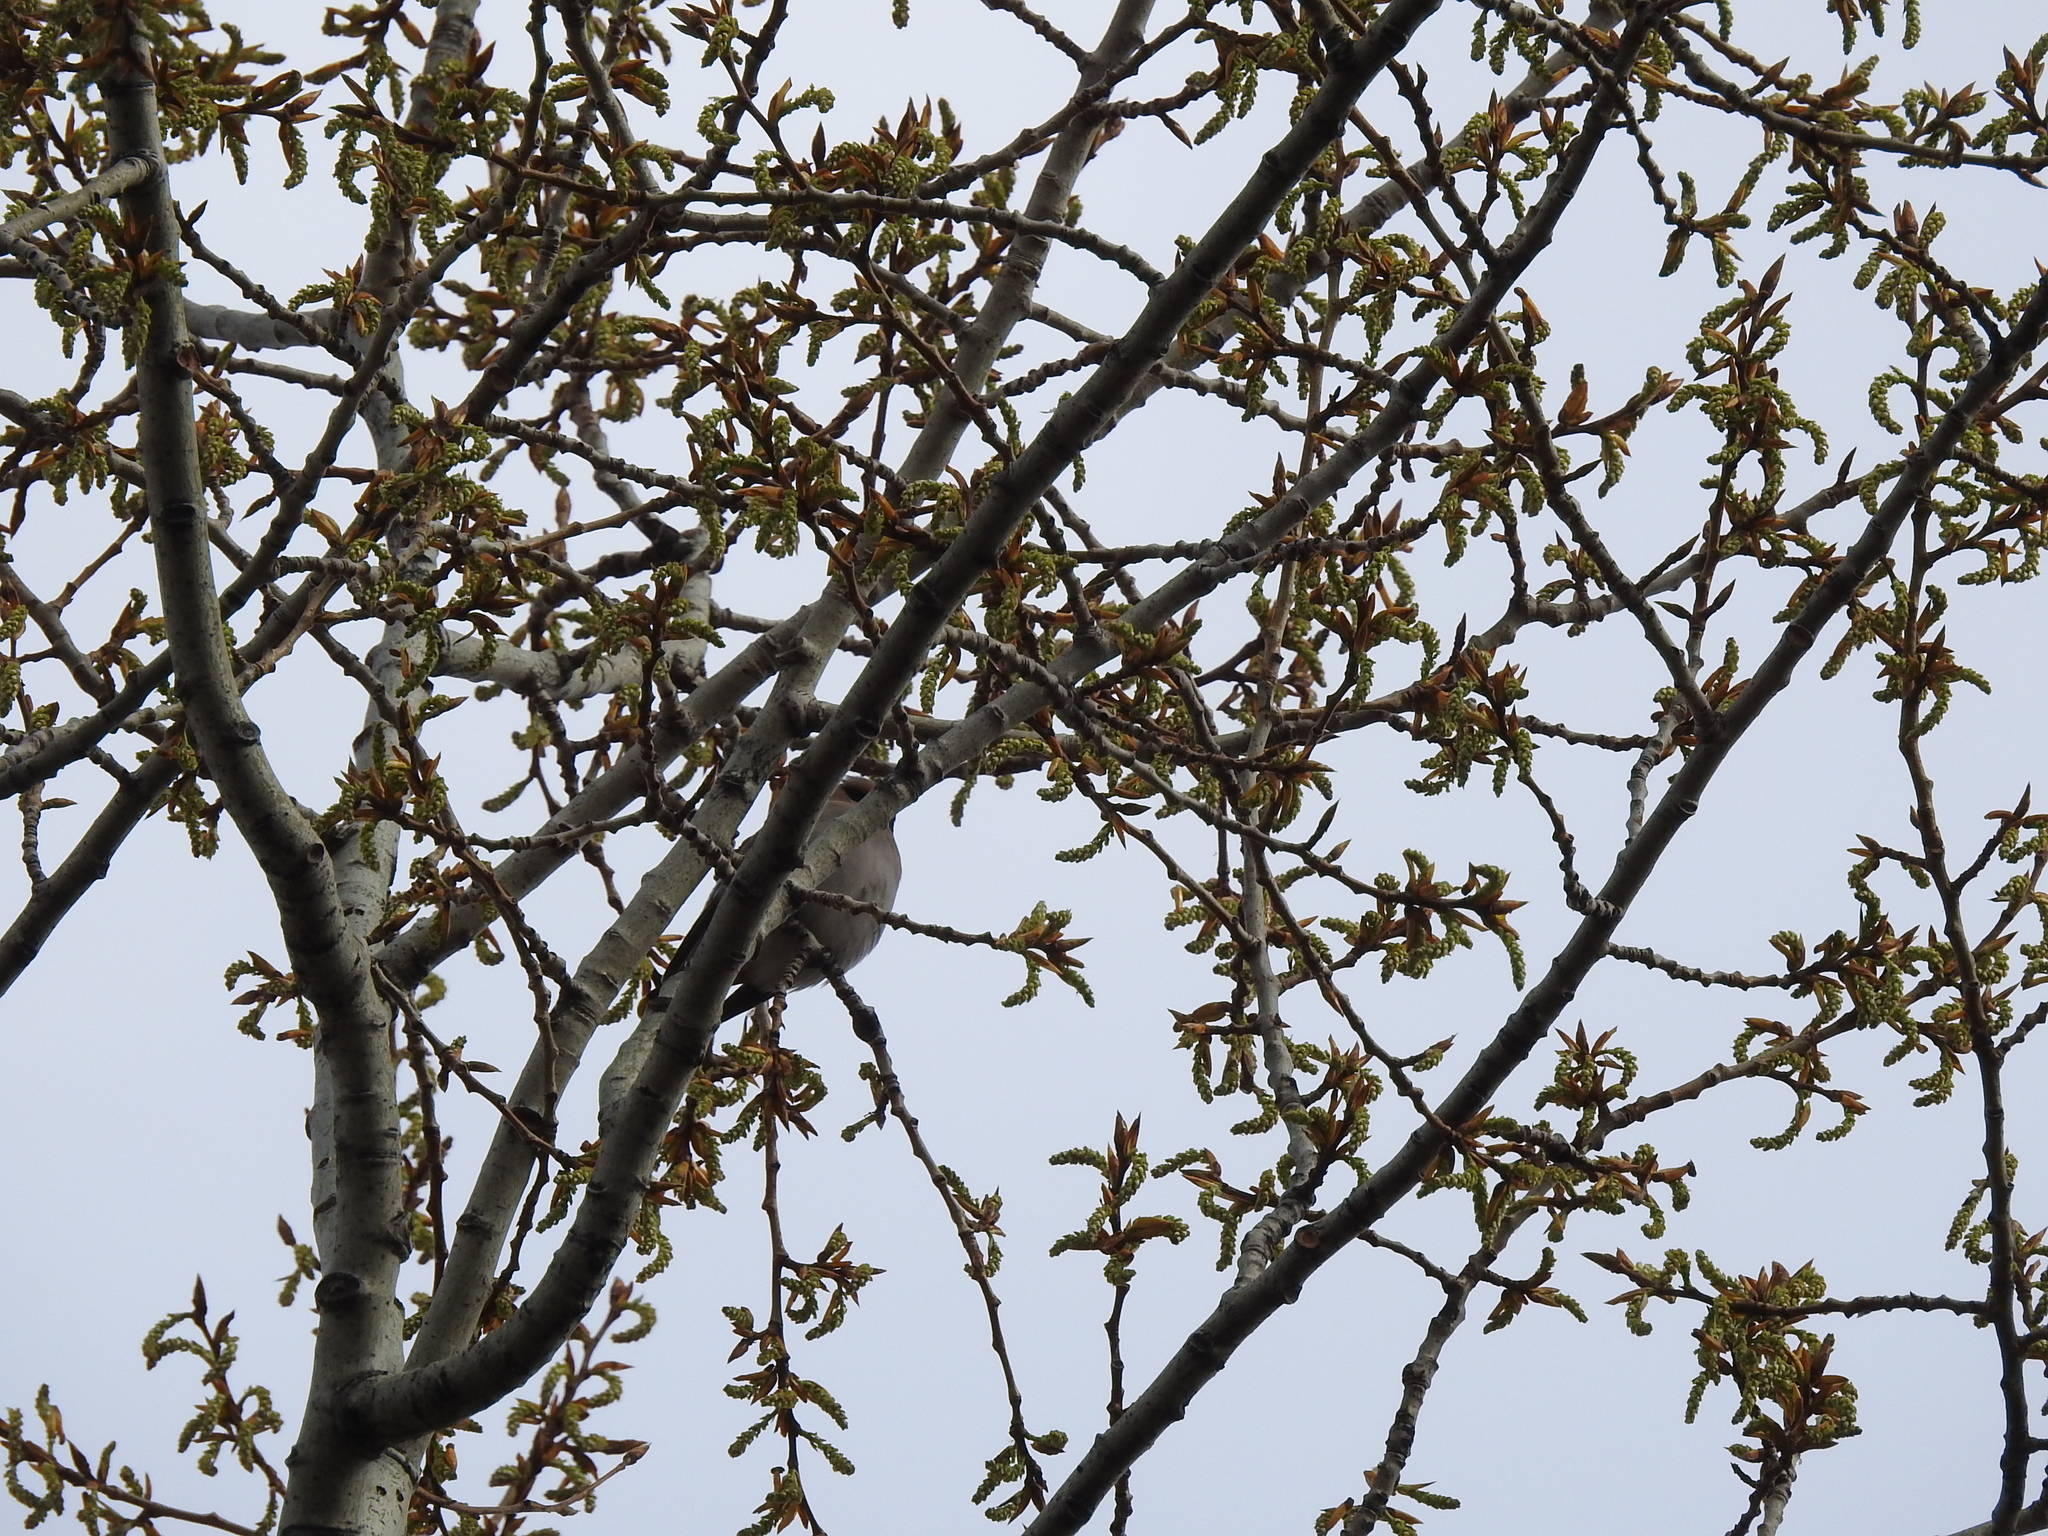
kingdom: Animalia
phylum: Chordata
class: Aves
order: Passeriformes
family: Bombycillidae
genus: Bombycilla
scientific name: Bombycilla garrulus
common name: Bohemian waxwing
